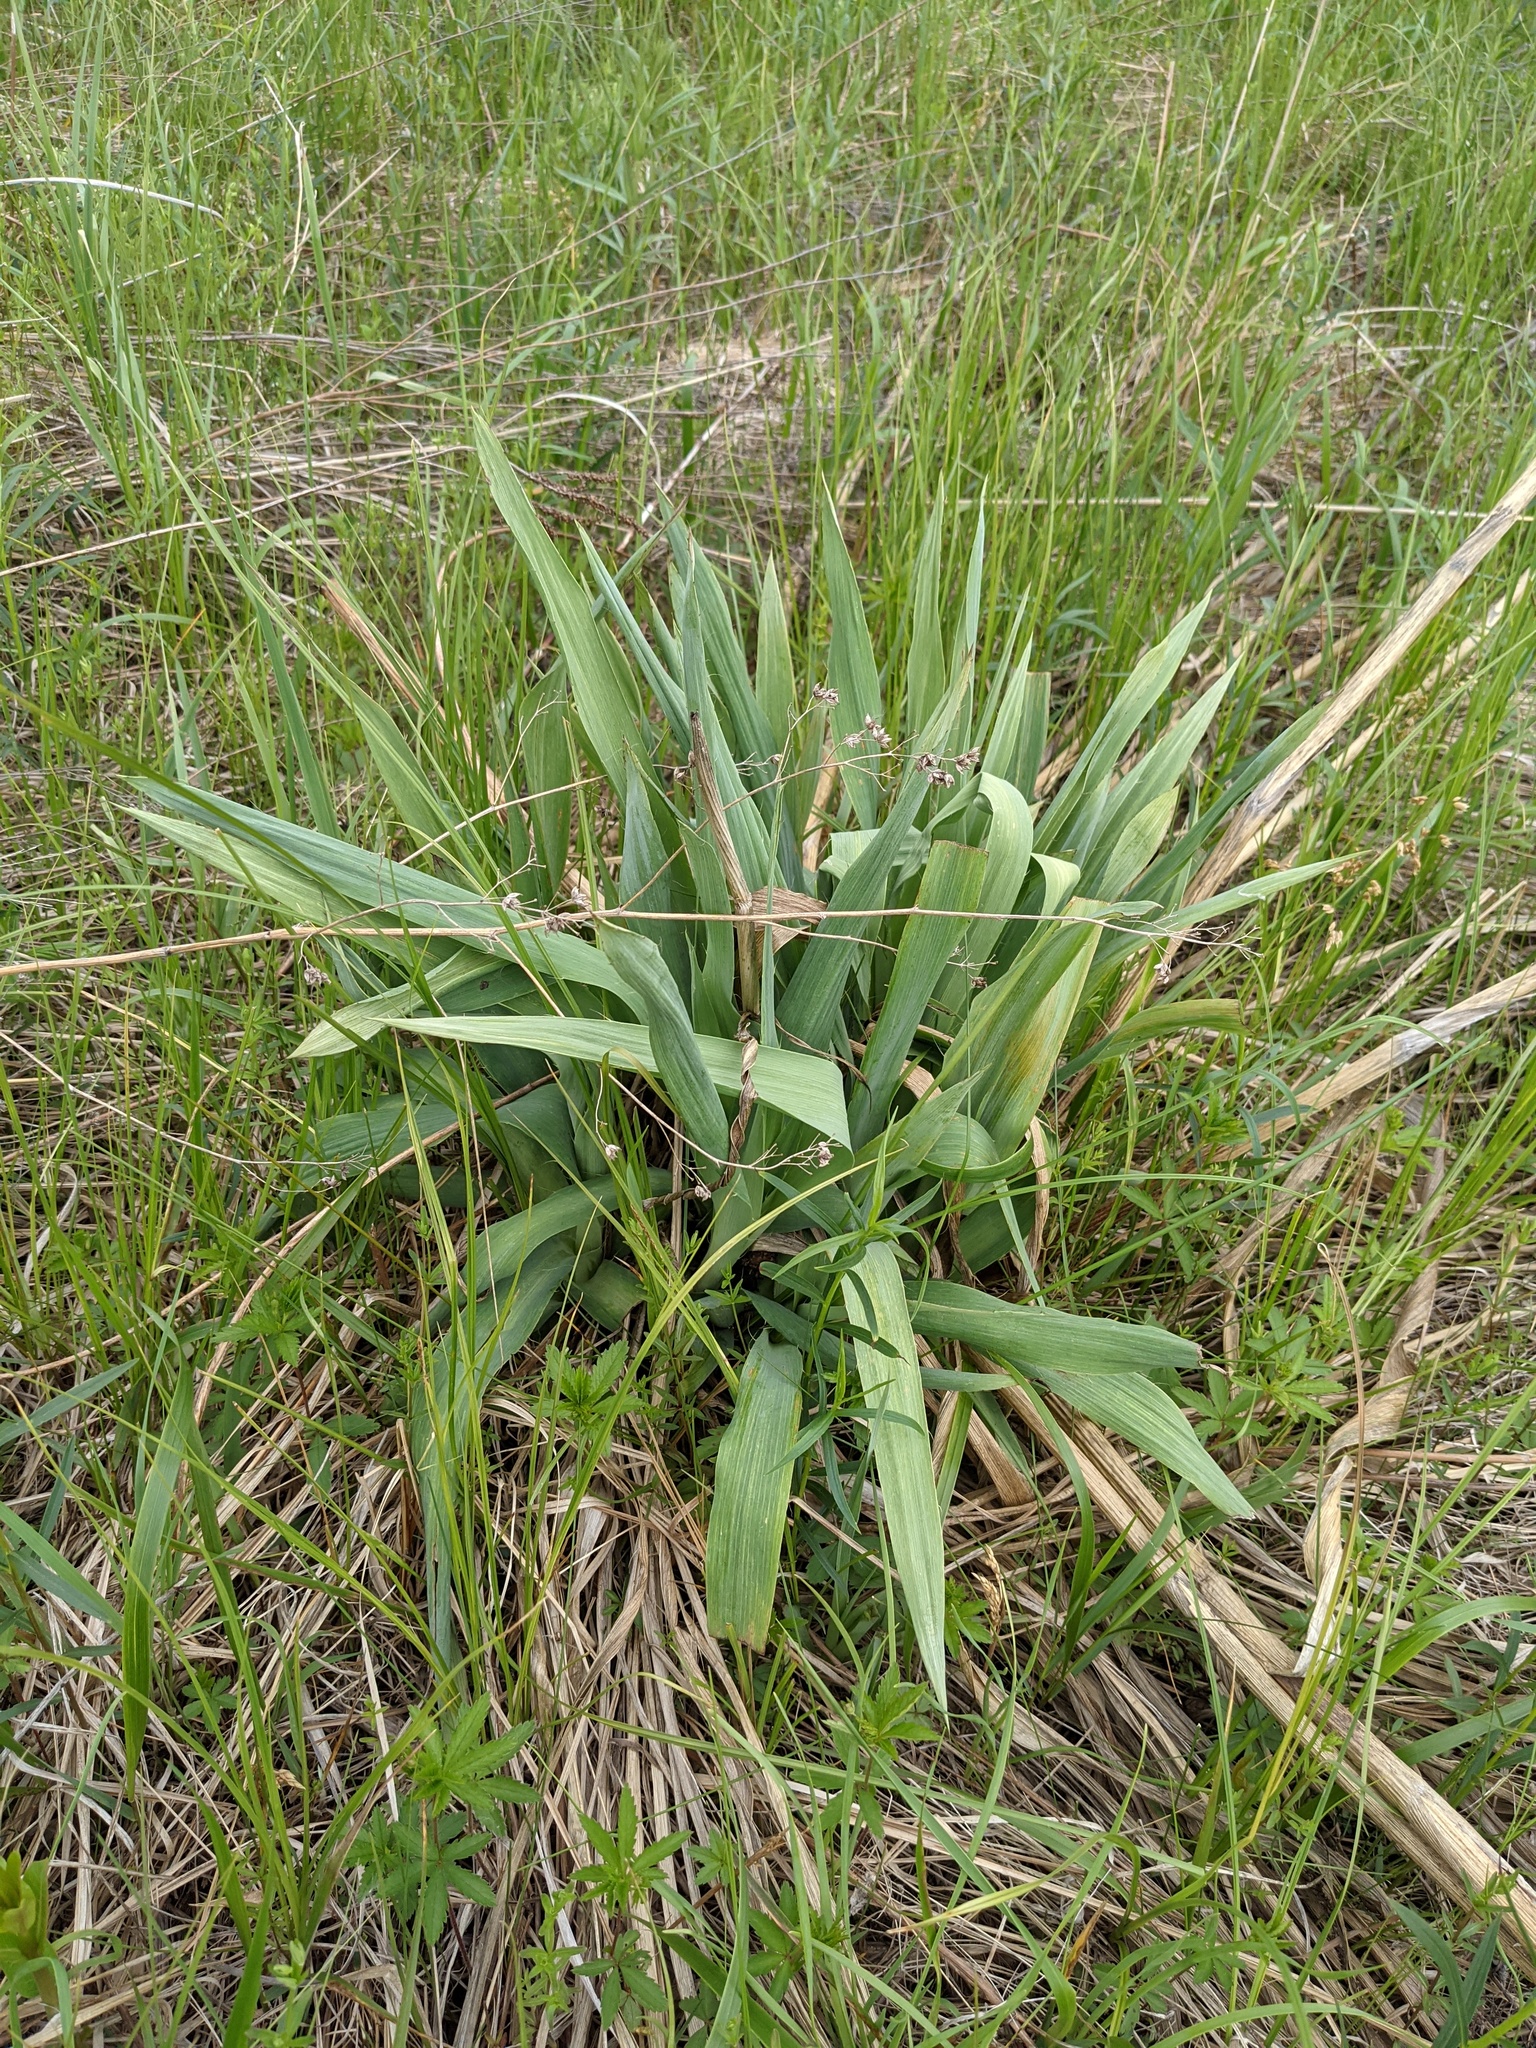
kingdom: Plantae
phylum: Tracheophyta
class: Magnoliopsida
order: Apiales
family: Apiaceae
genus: Eryngium
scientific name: Eryngium yuccifolium
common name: Button eryngo
